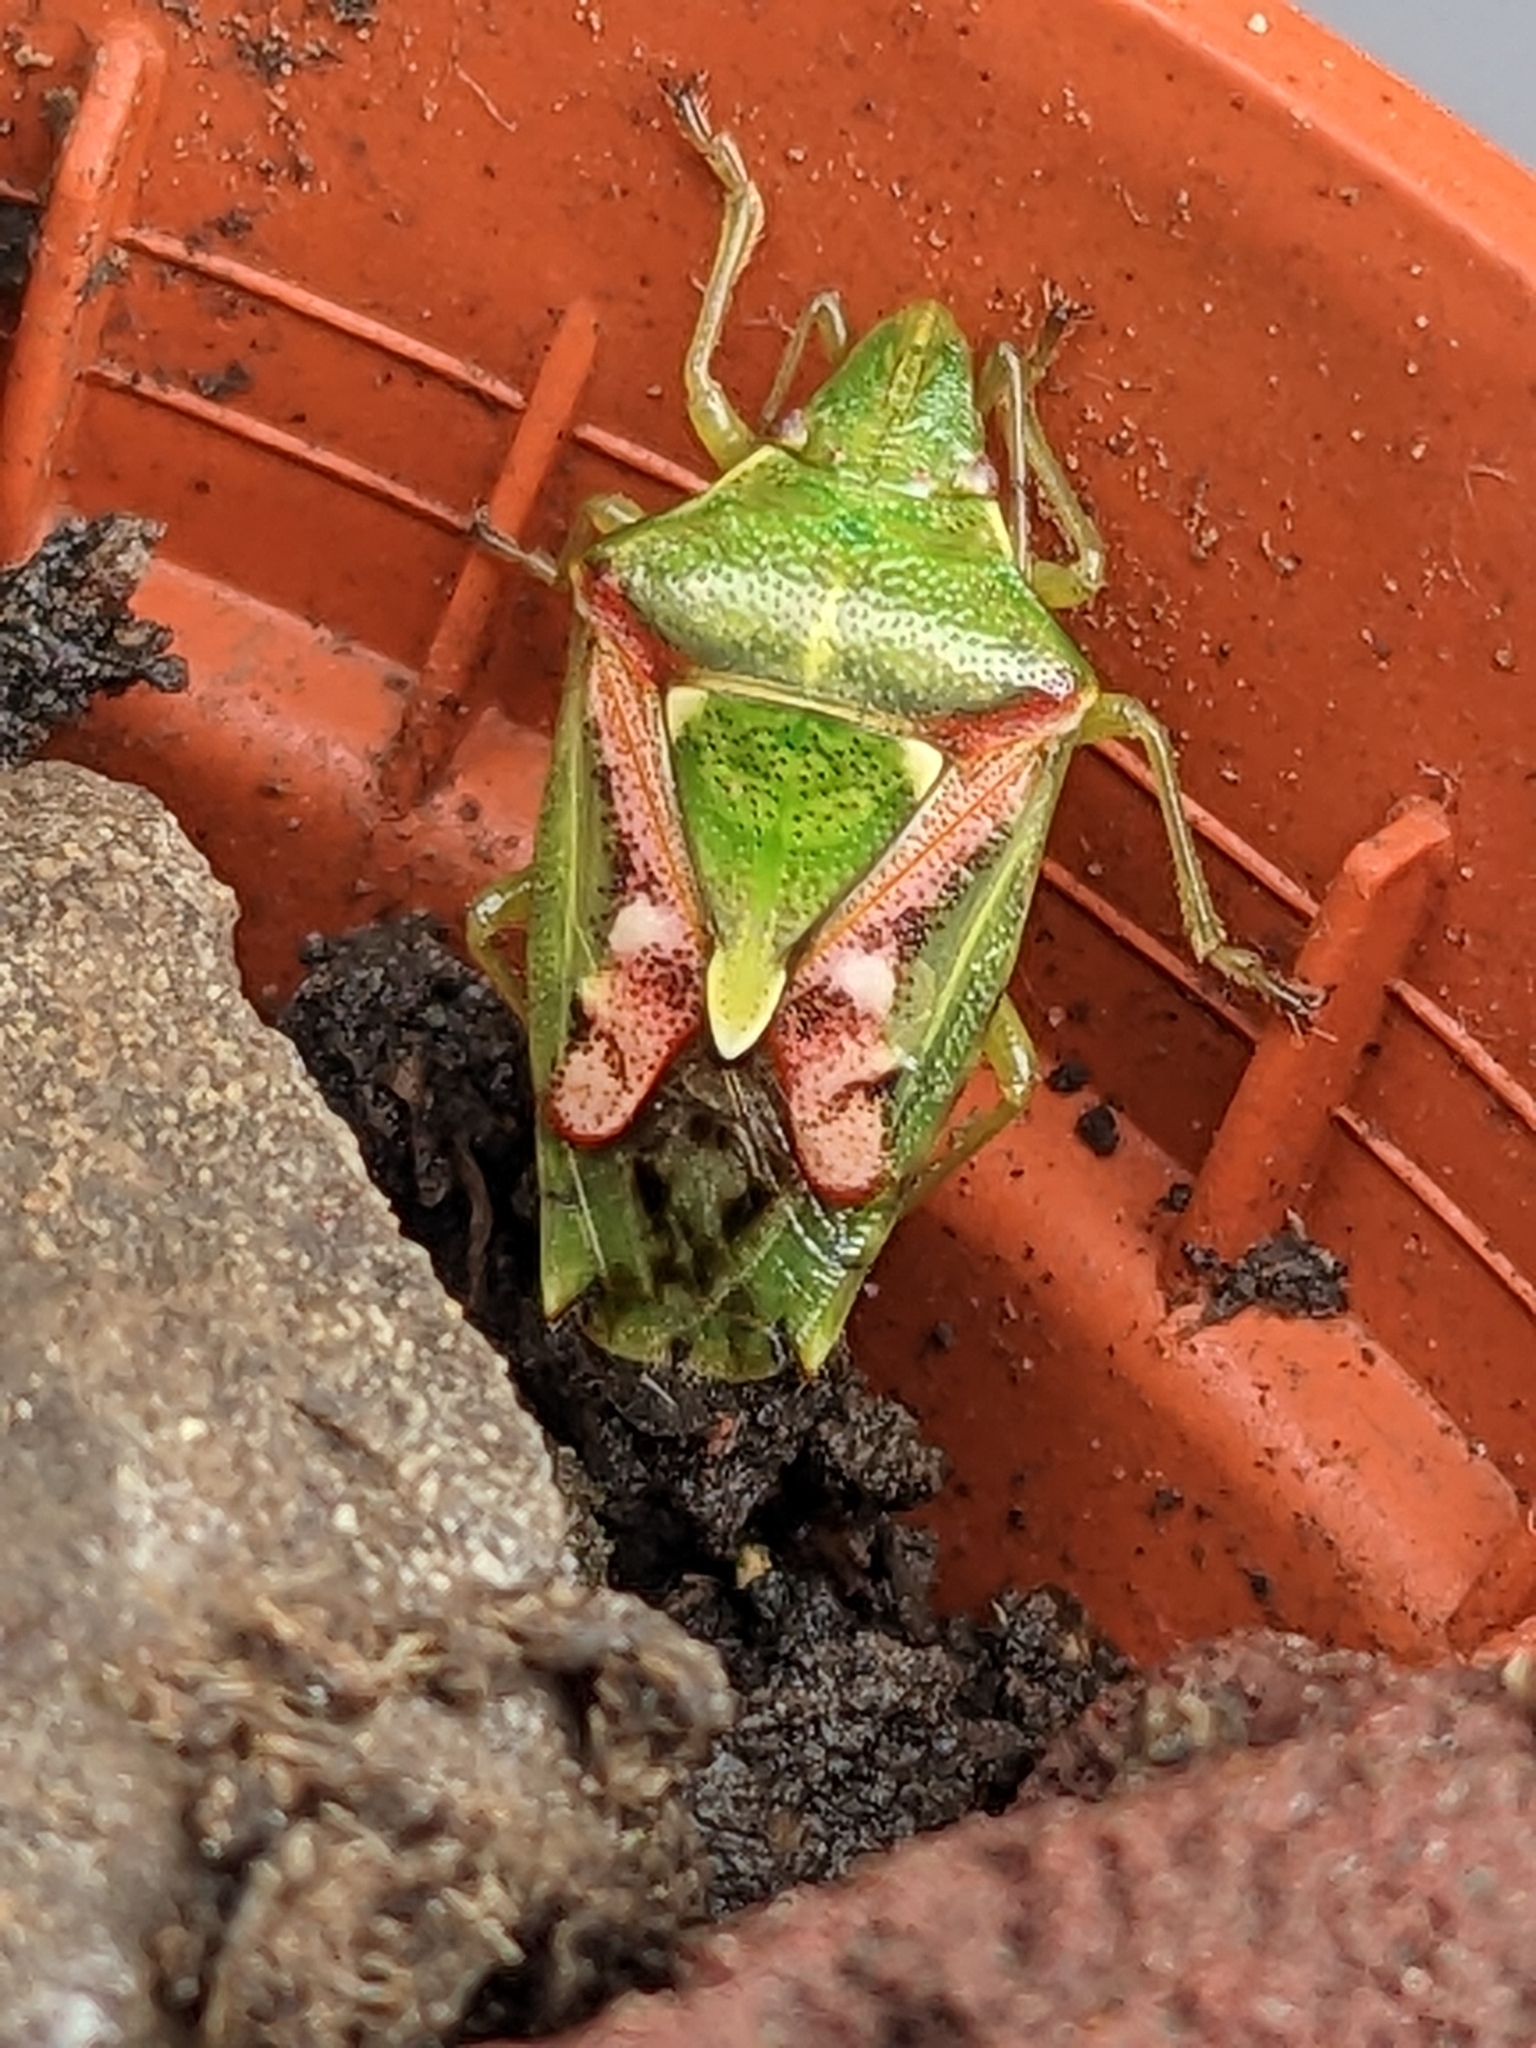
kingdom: Animalia
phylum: Arthropoda
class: Insecta
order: Hemiptera
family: Acanthosomatidae
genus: Cyphostethus
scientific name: Cyphostethus tristriatus
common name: Juniper shieldbug
